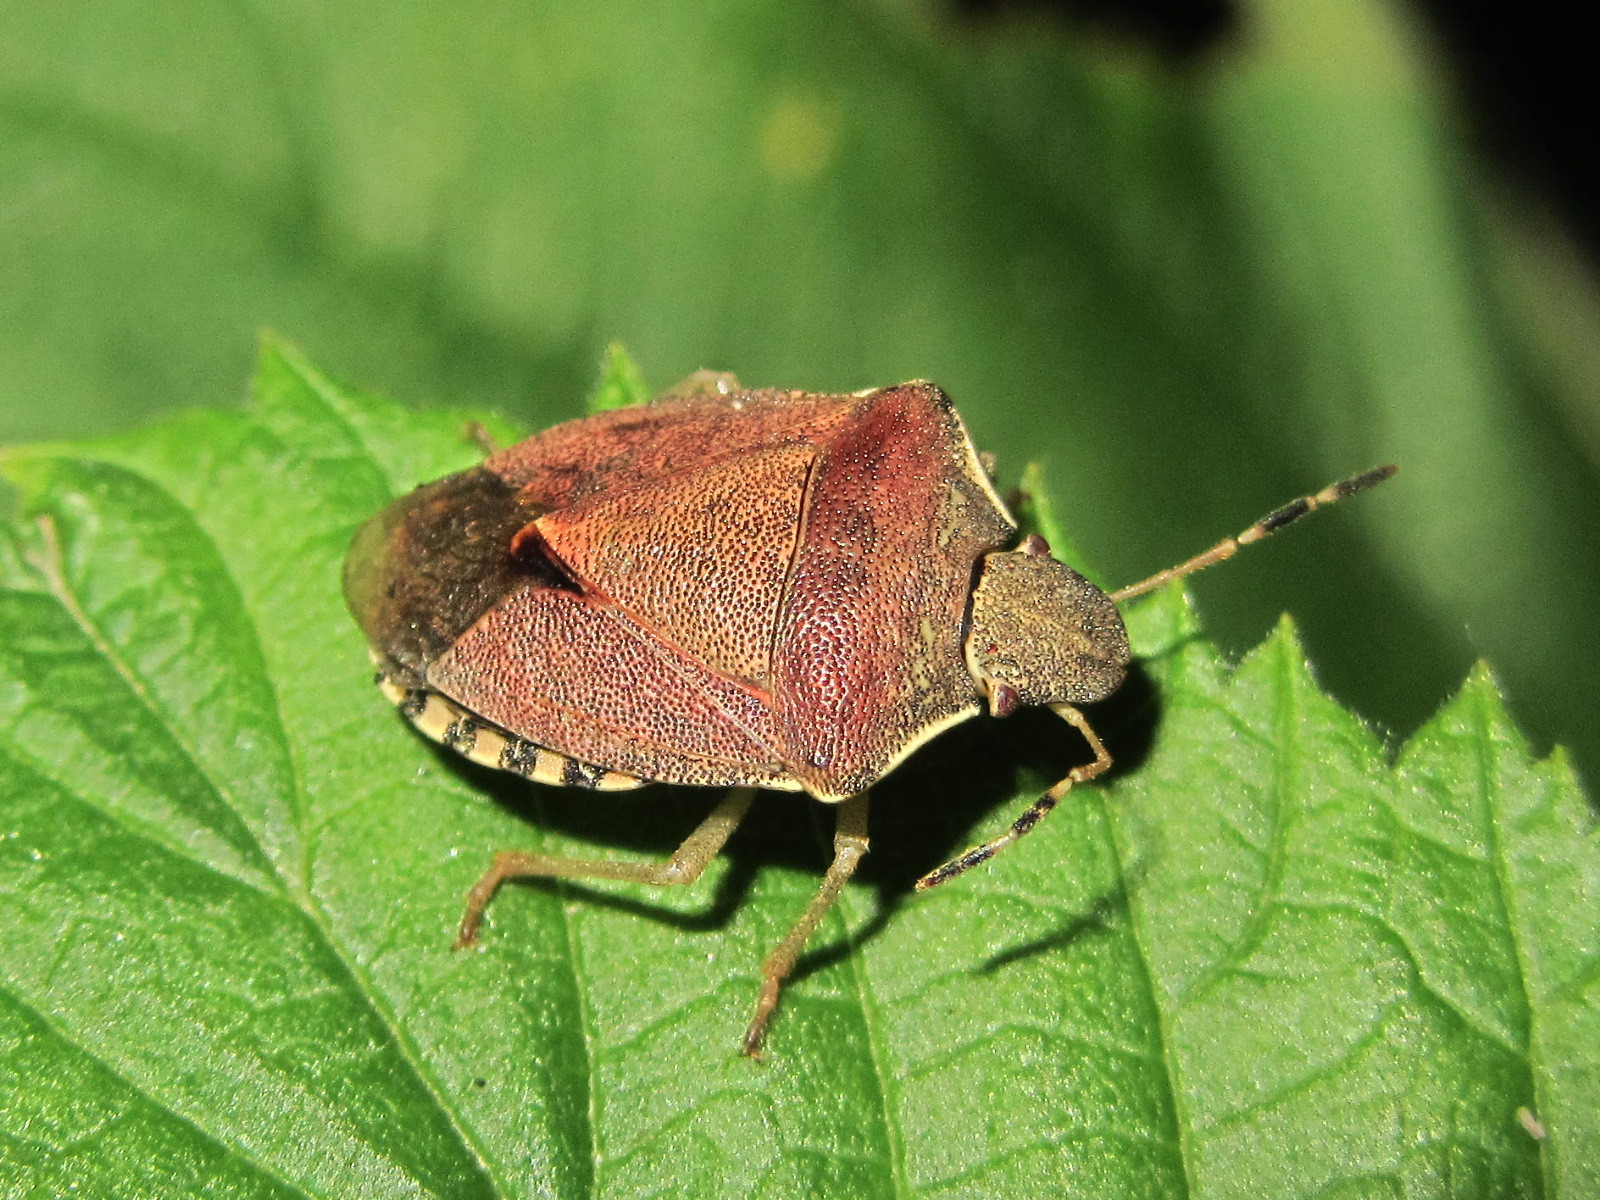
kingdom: Animalia
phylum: Arthropoda
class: Insecta
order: Hemiptera
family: Pentatomidae
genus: Holcostethus
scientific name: Holcostethus strictus
